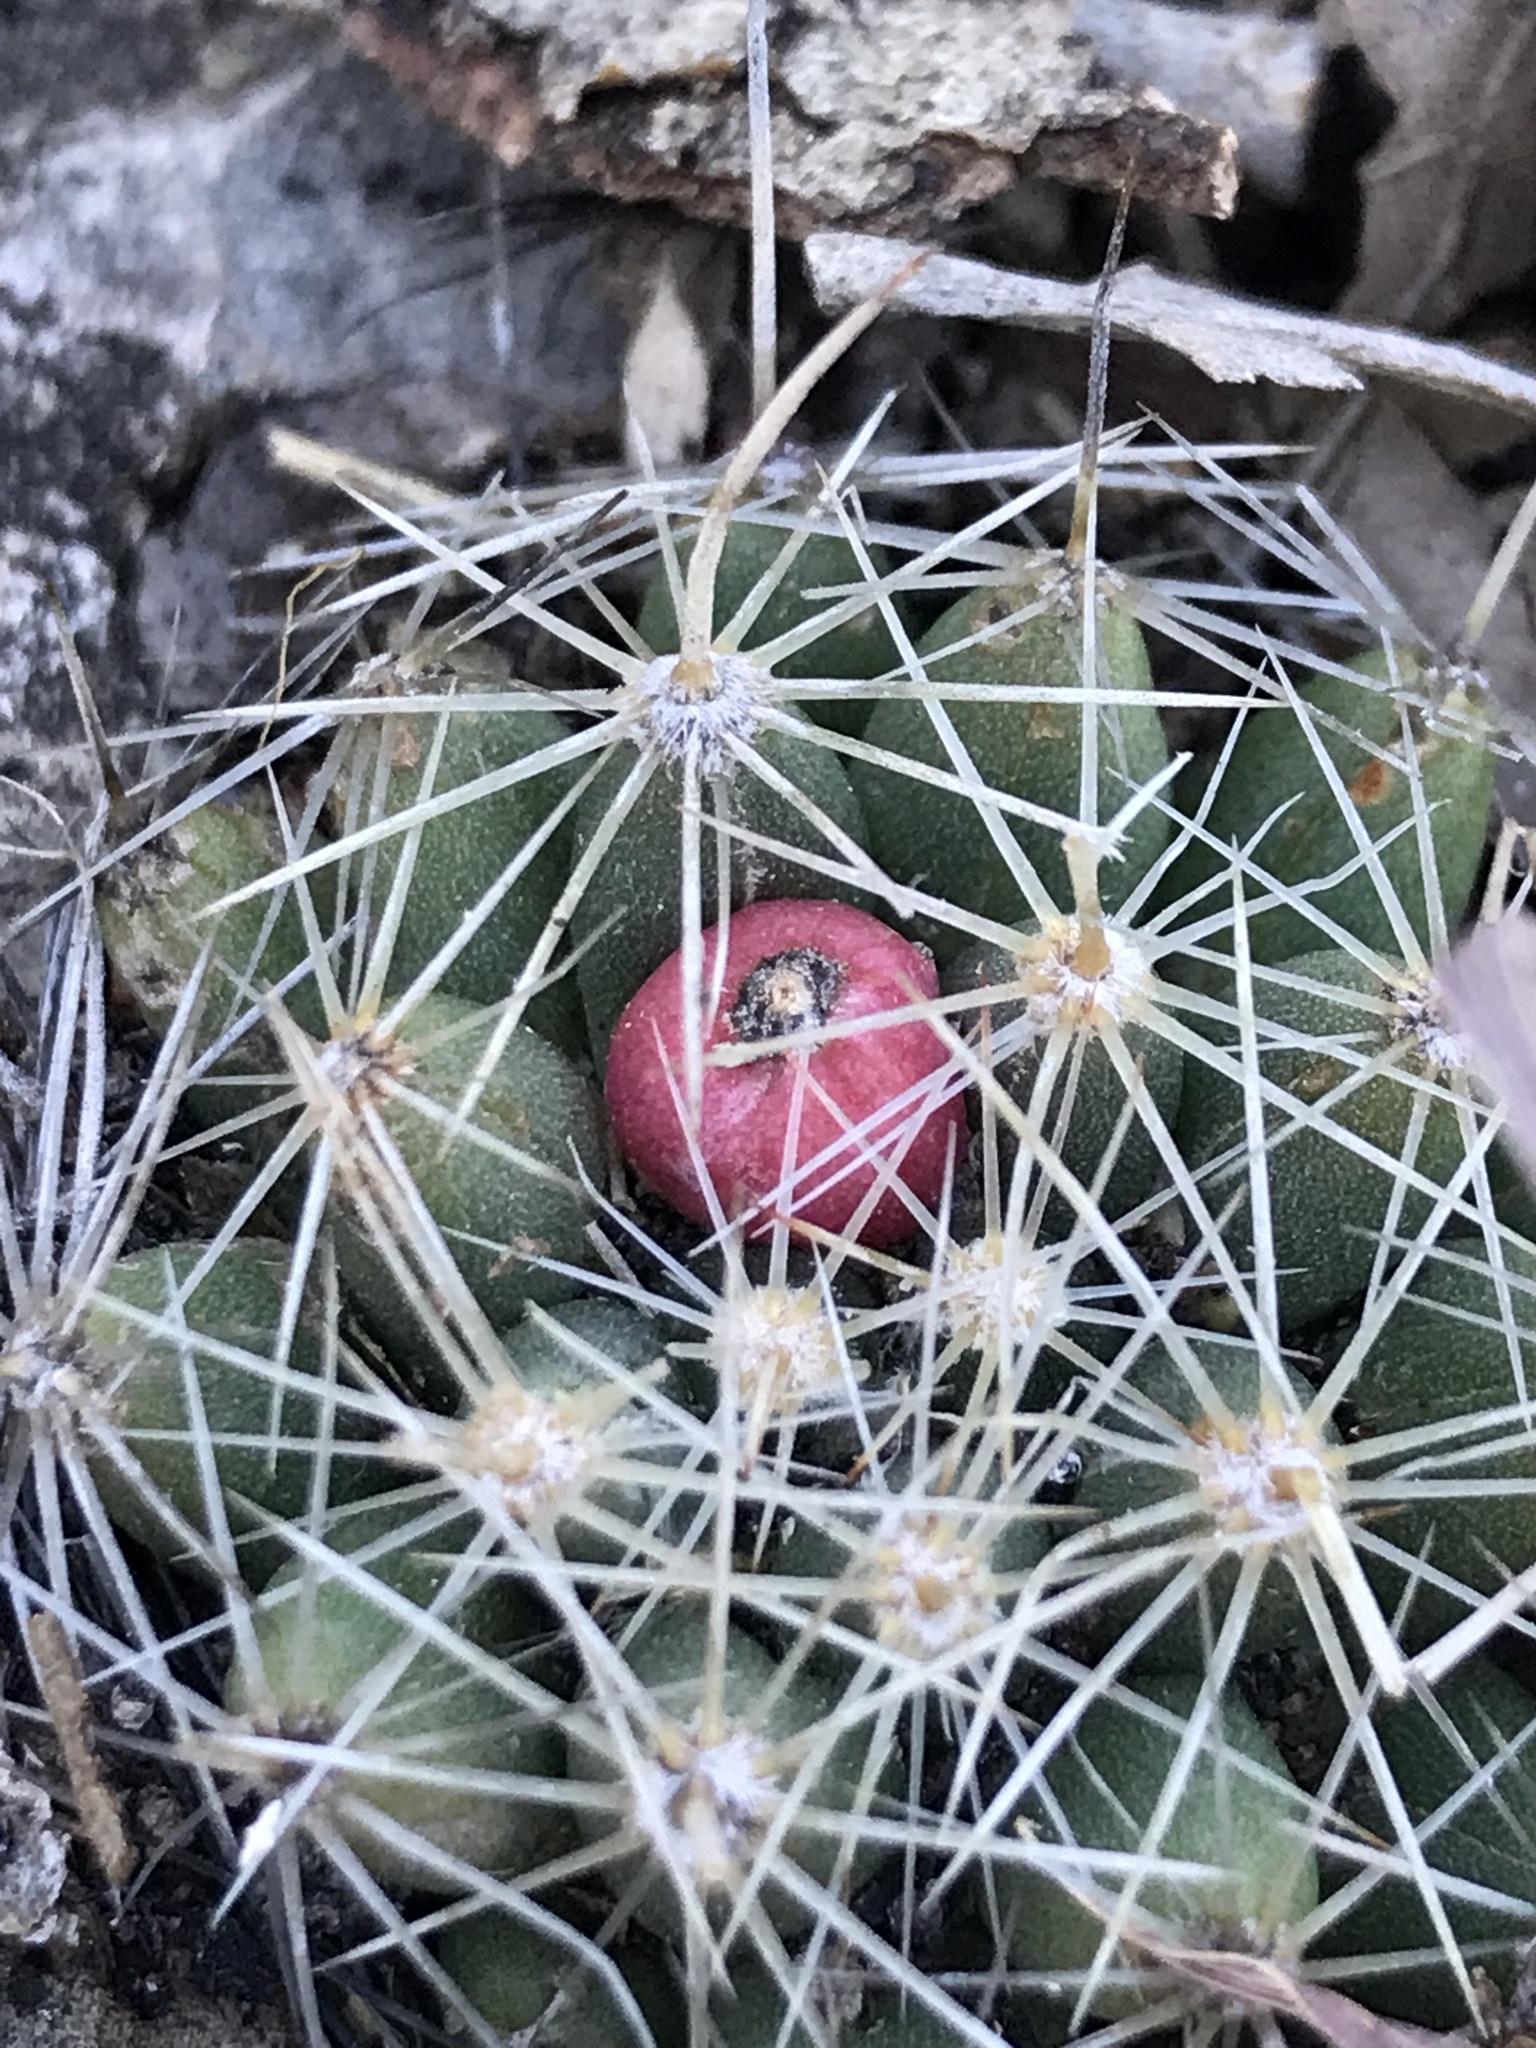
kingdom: Plantae
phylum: Tracheophyta
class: Magnoliopsida
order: Caryophyllales
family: Cactaceae
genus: Pelecyphora
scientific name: Pelecyphora missouriensis
